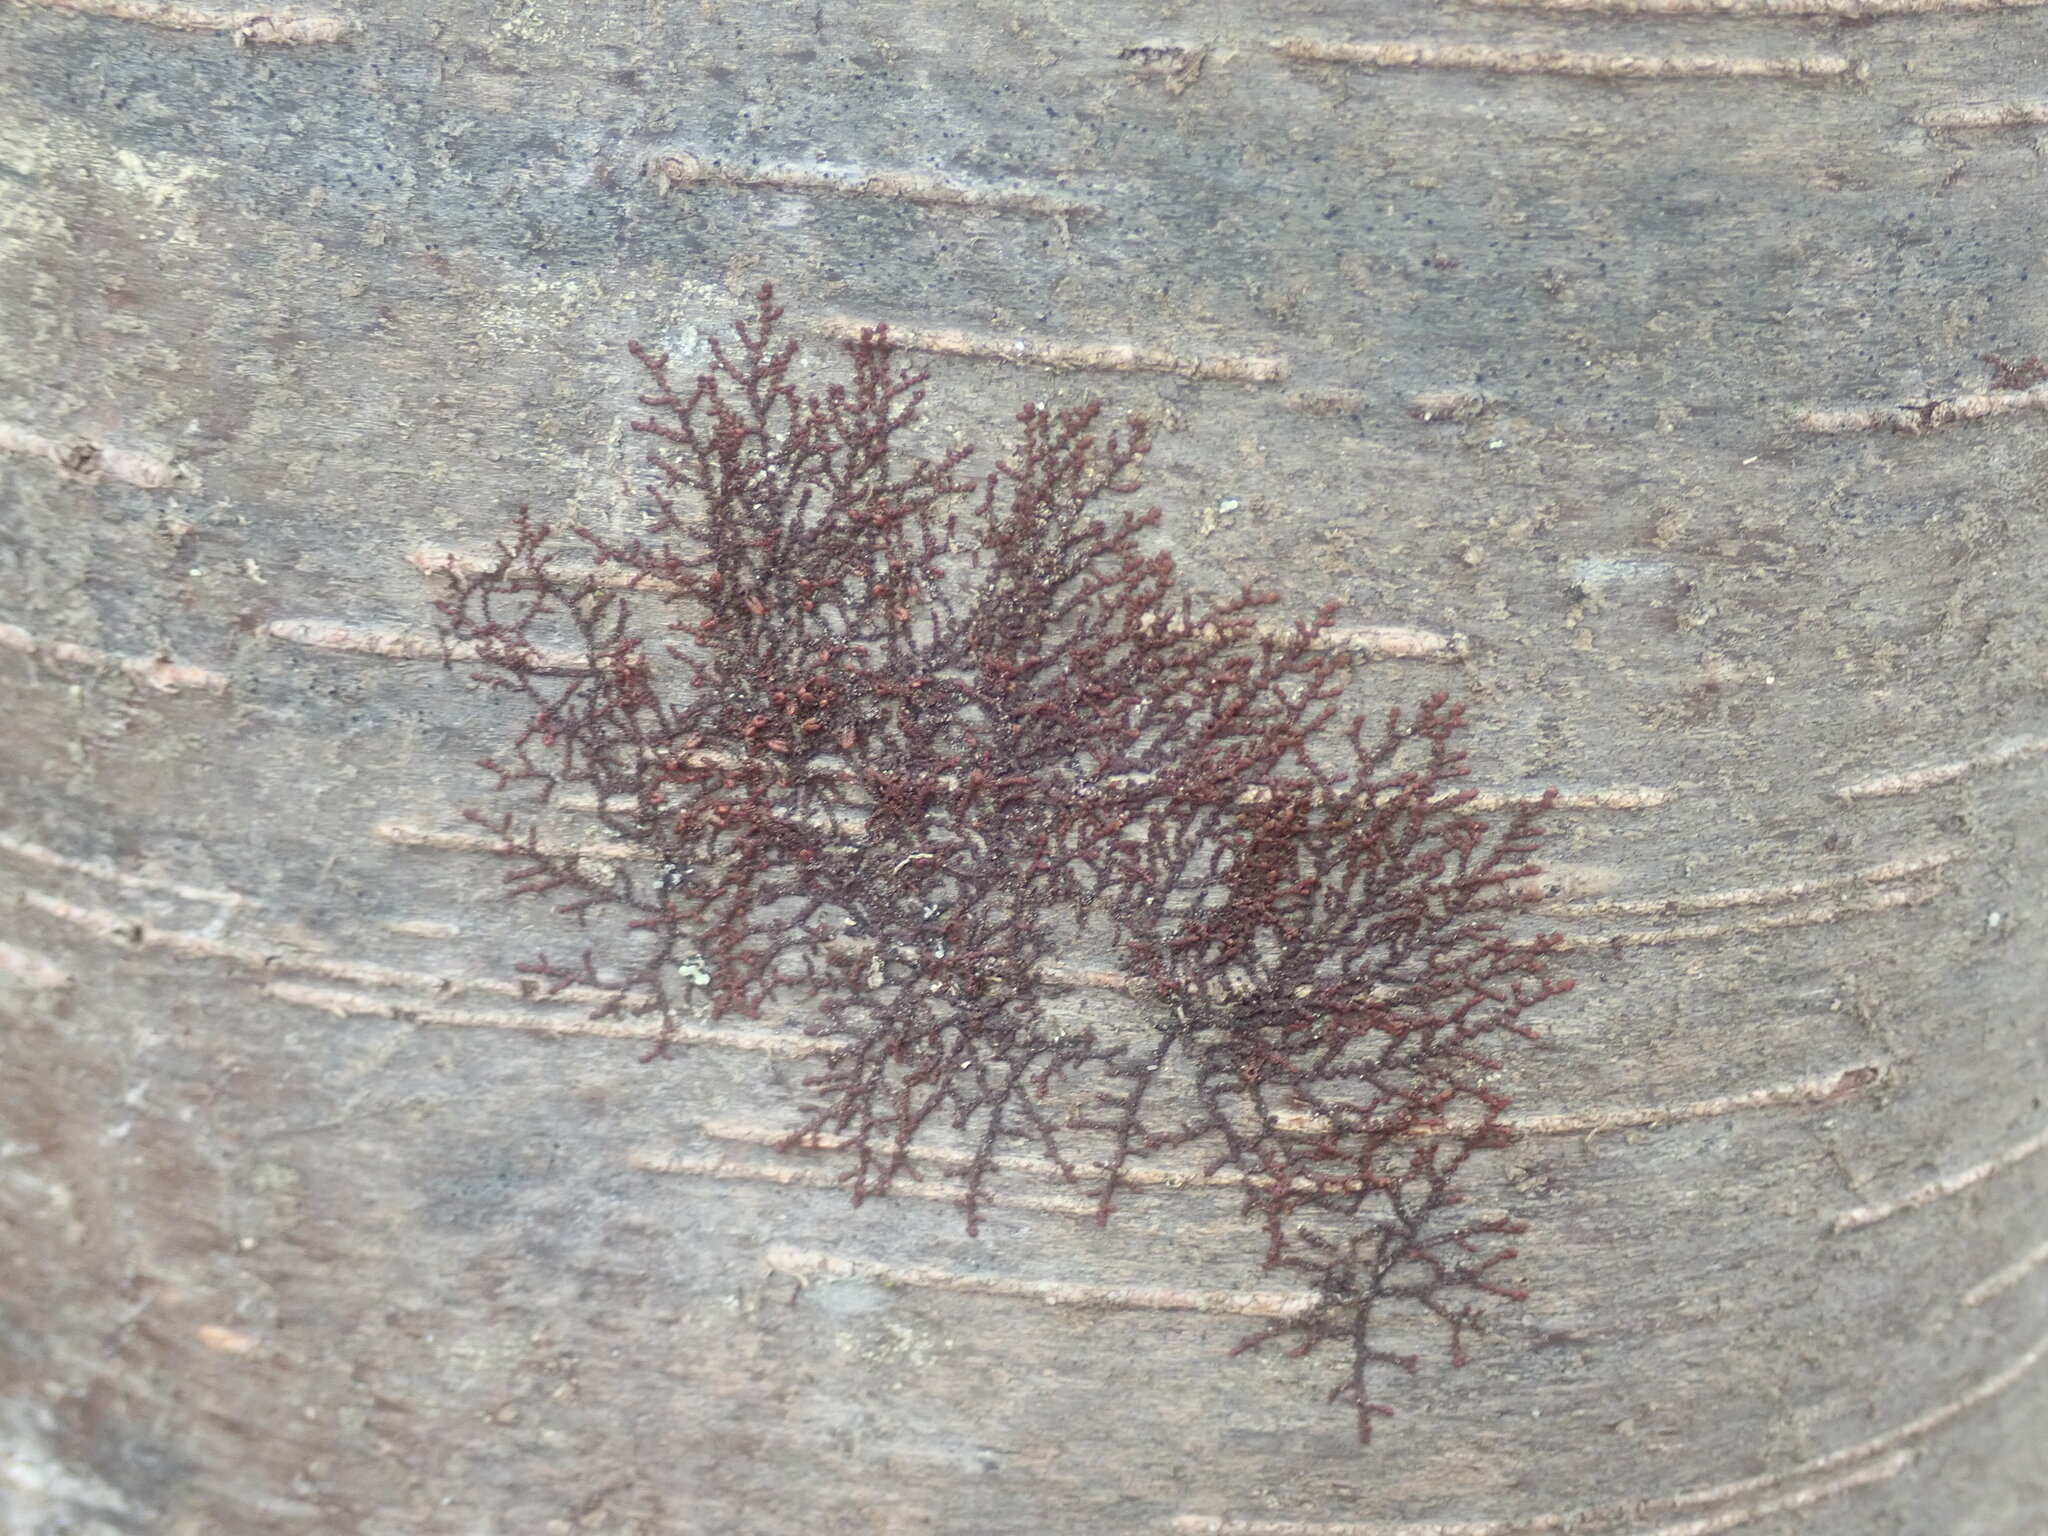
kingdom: Plantae
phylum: Marchantiophyta
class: Jungermanniopsida
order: Porellales
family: Frullaniaceae
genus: Frullania
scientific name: Frullania
